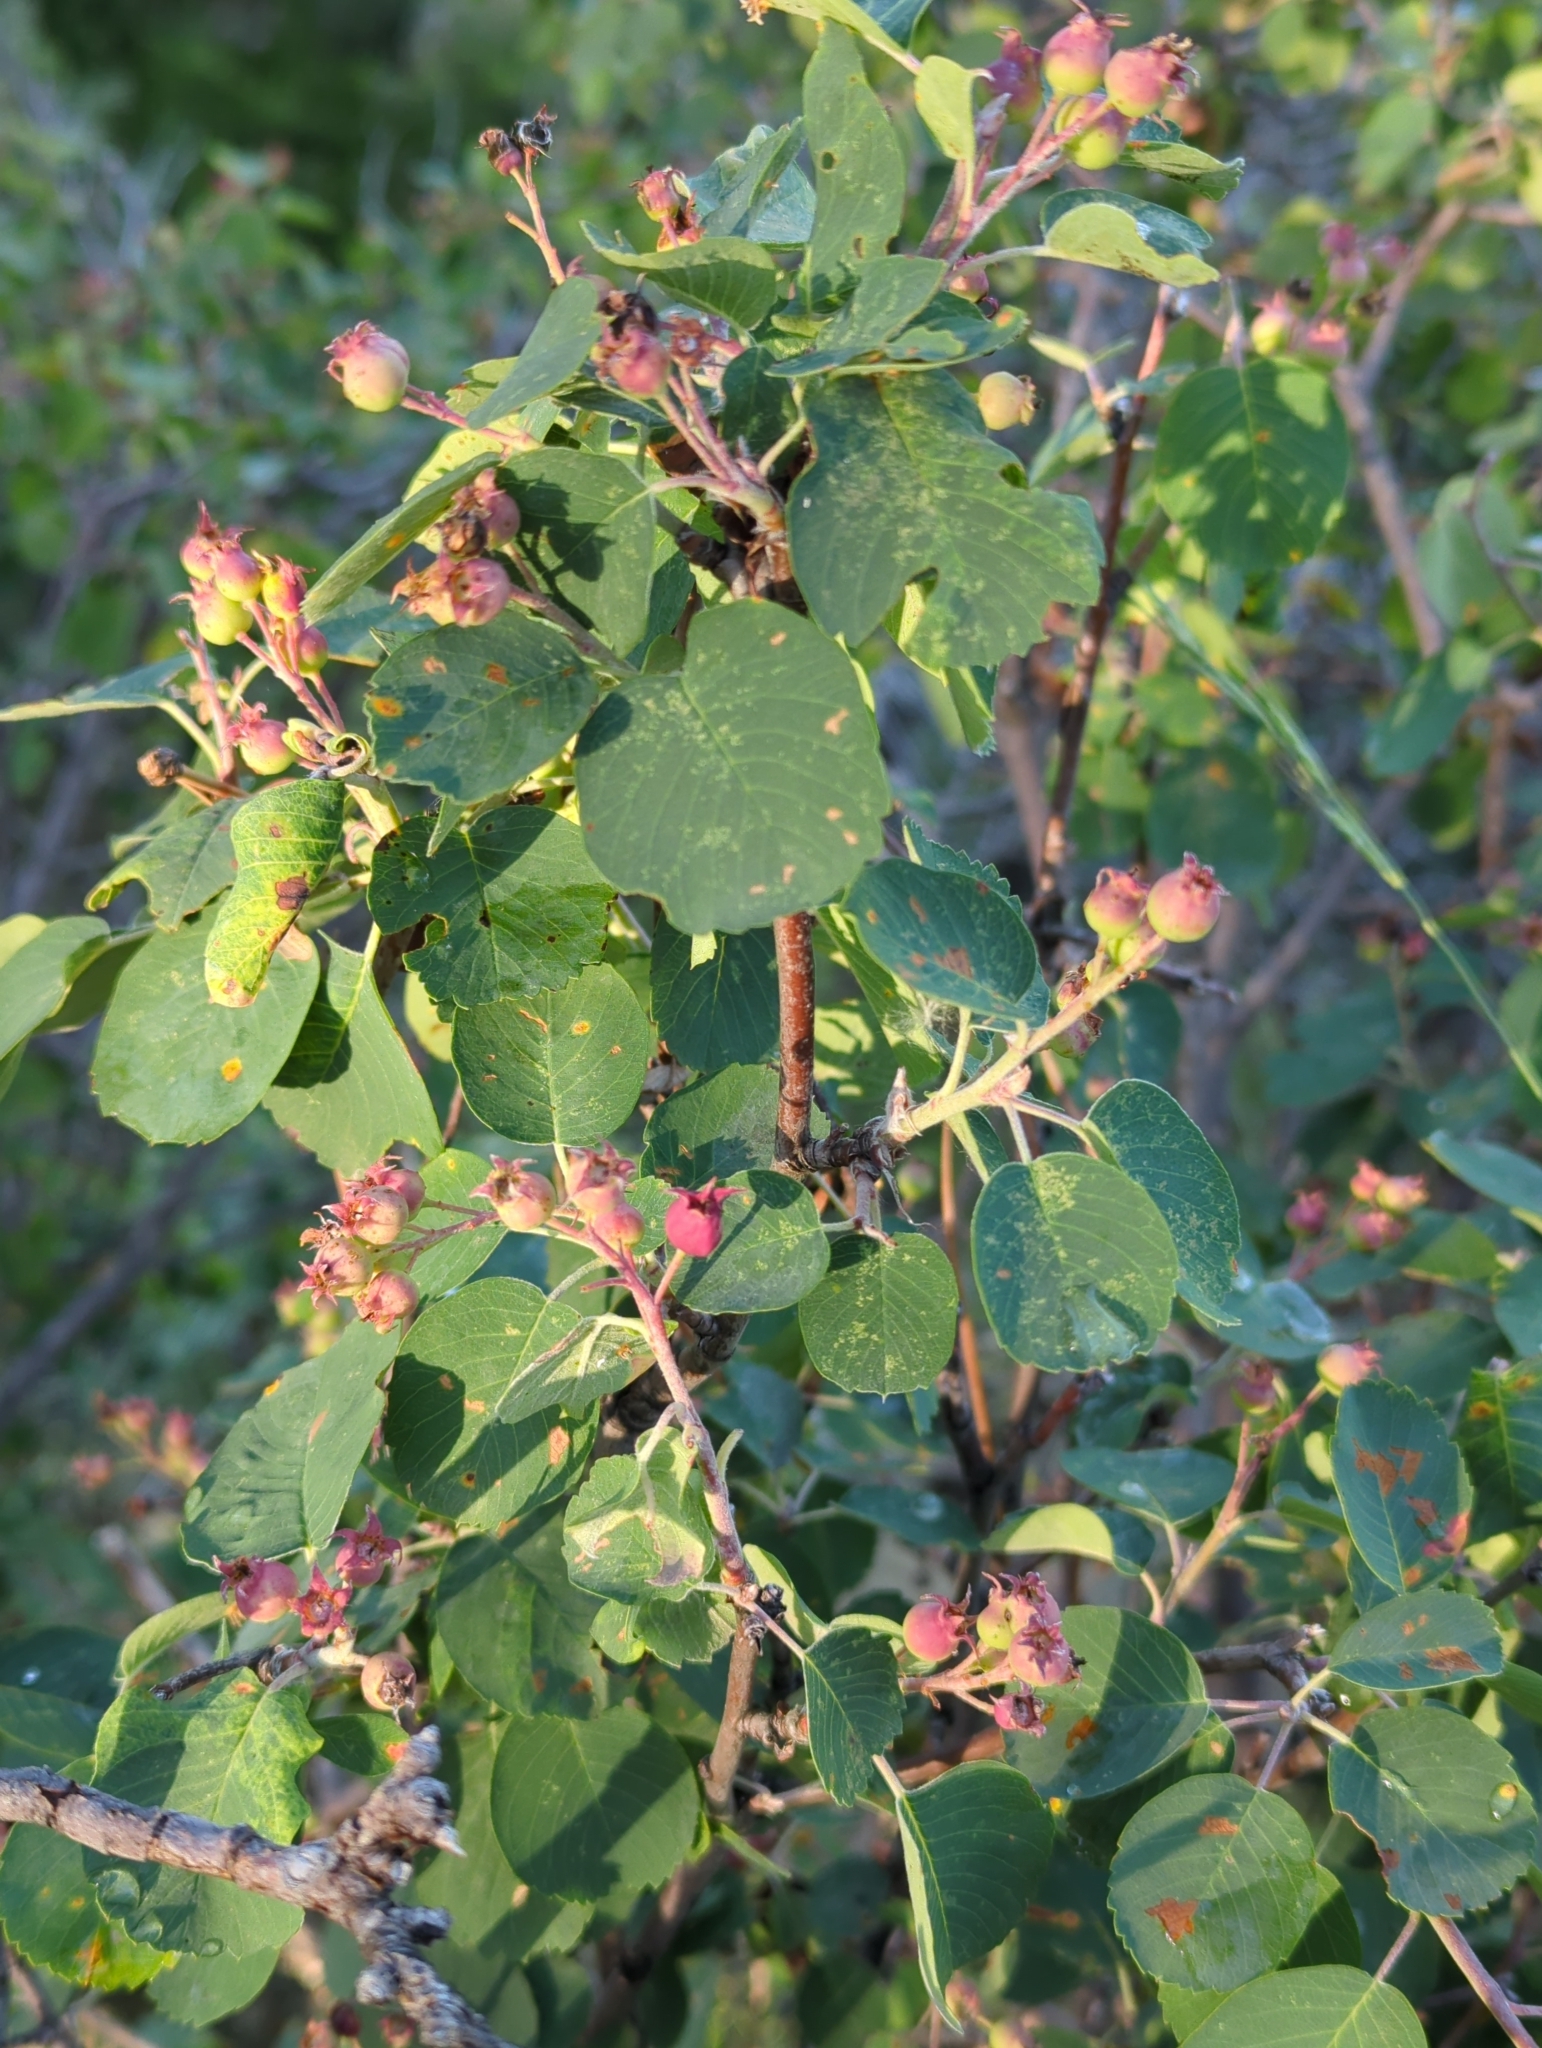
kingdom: Plantae
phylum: Tracheophyta
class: Magnoliopsida
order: Rosales
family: Rosaceae
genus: Amelanchier
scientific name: Amelanchier alnifolia
